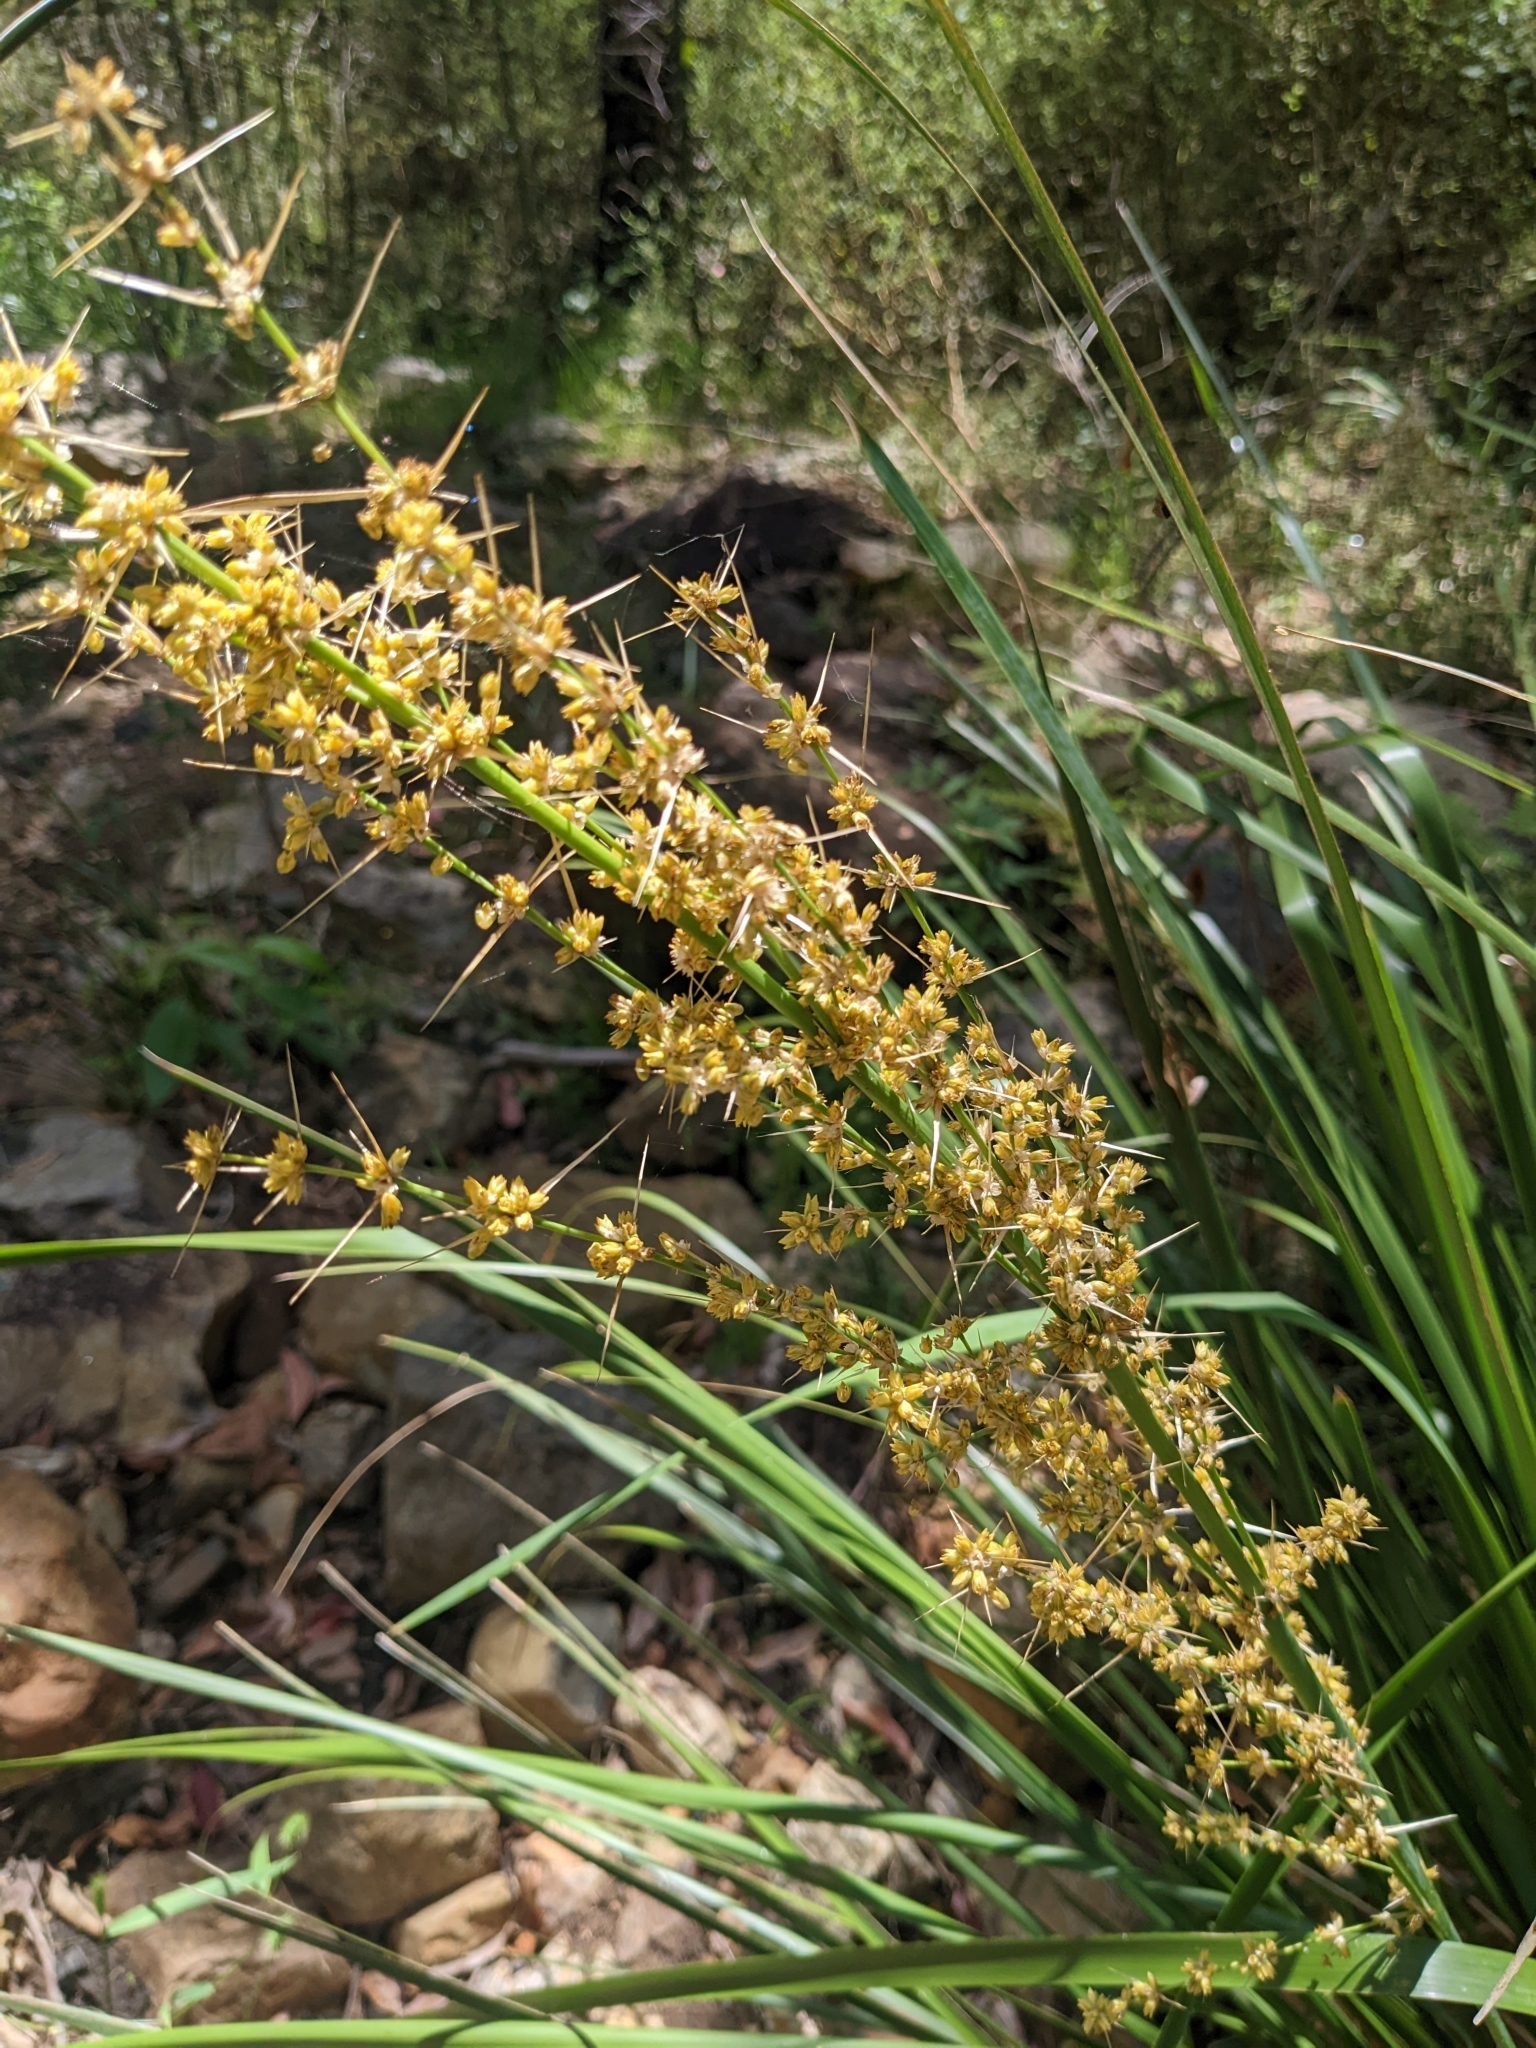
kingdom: Plantae
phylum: Tracheophyta
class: Liliopsida
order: Asparagales
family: Asparagaceae
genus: Lomandra
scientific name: Lomandra longifolia
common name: Longleaf mat-rush
